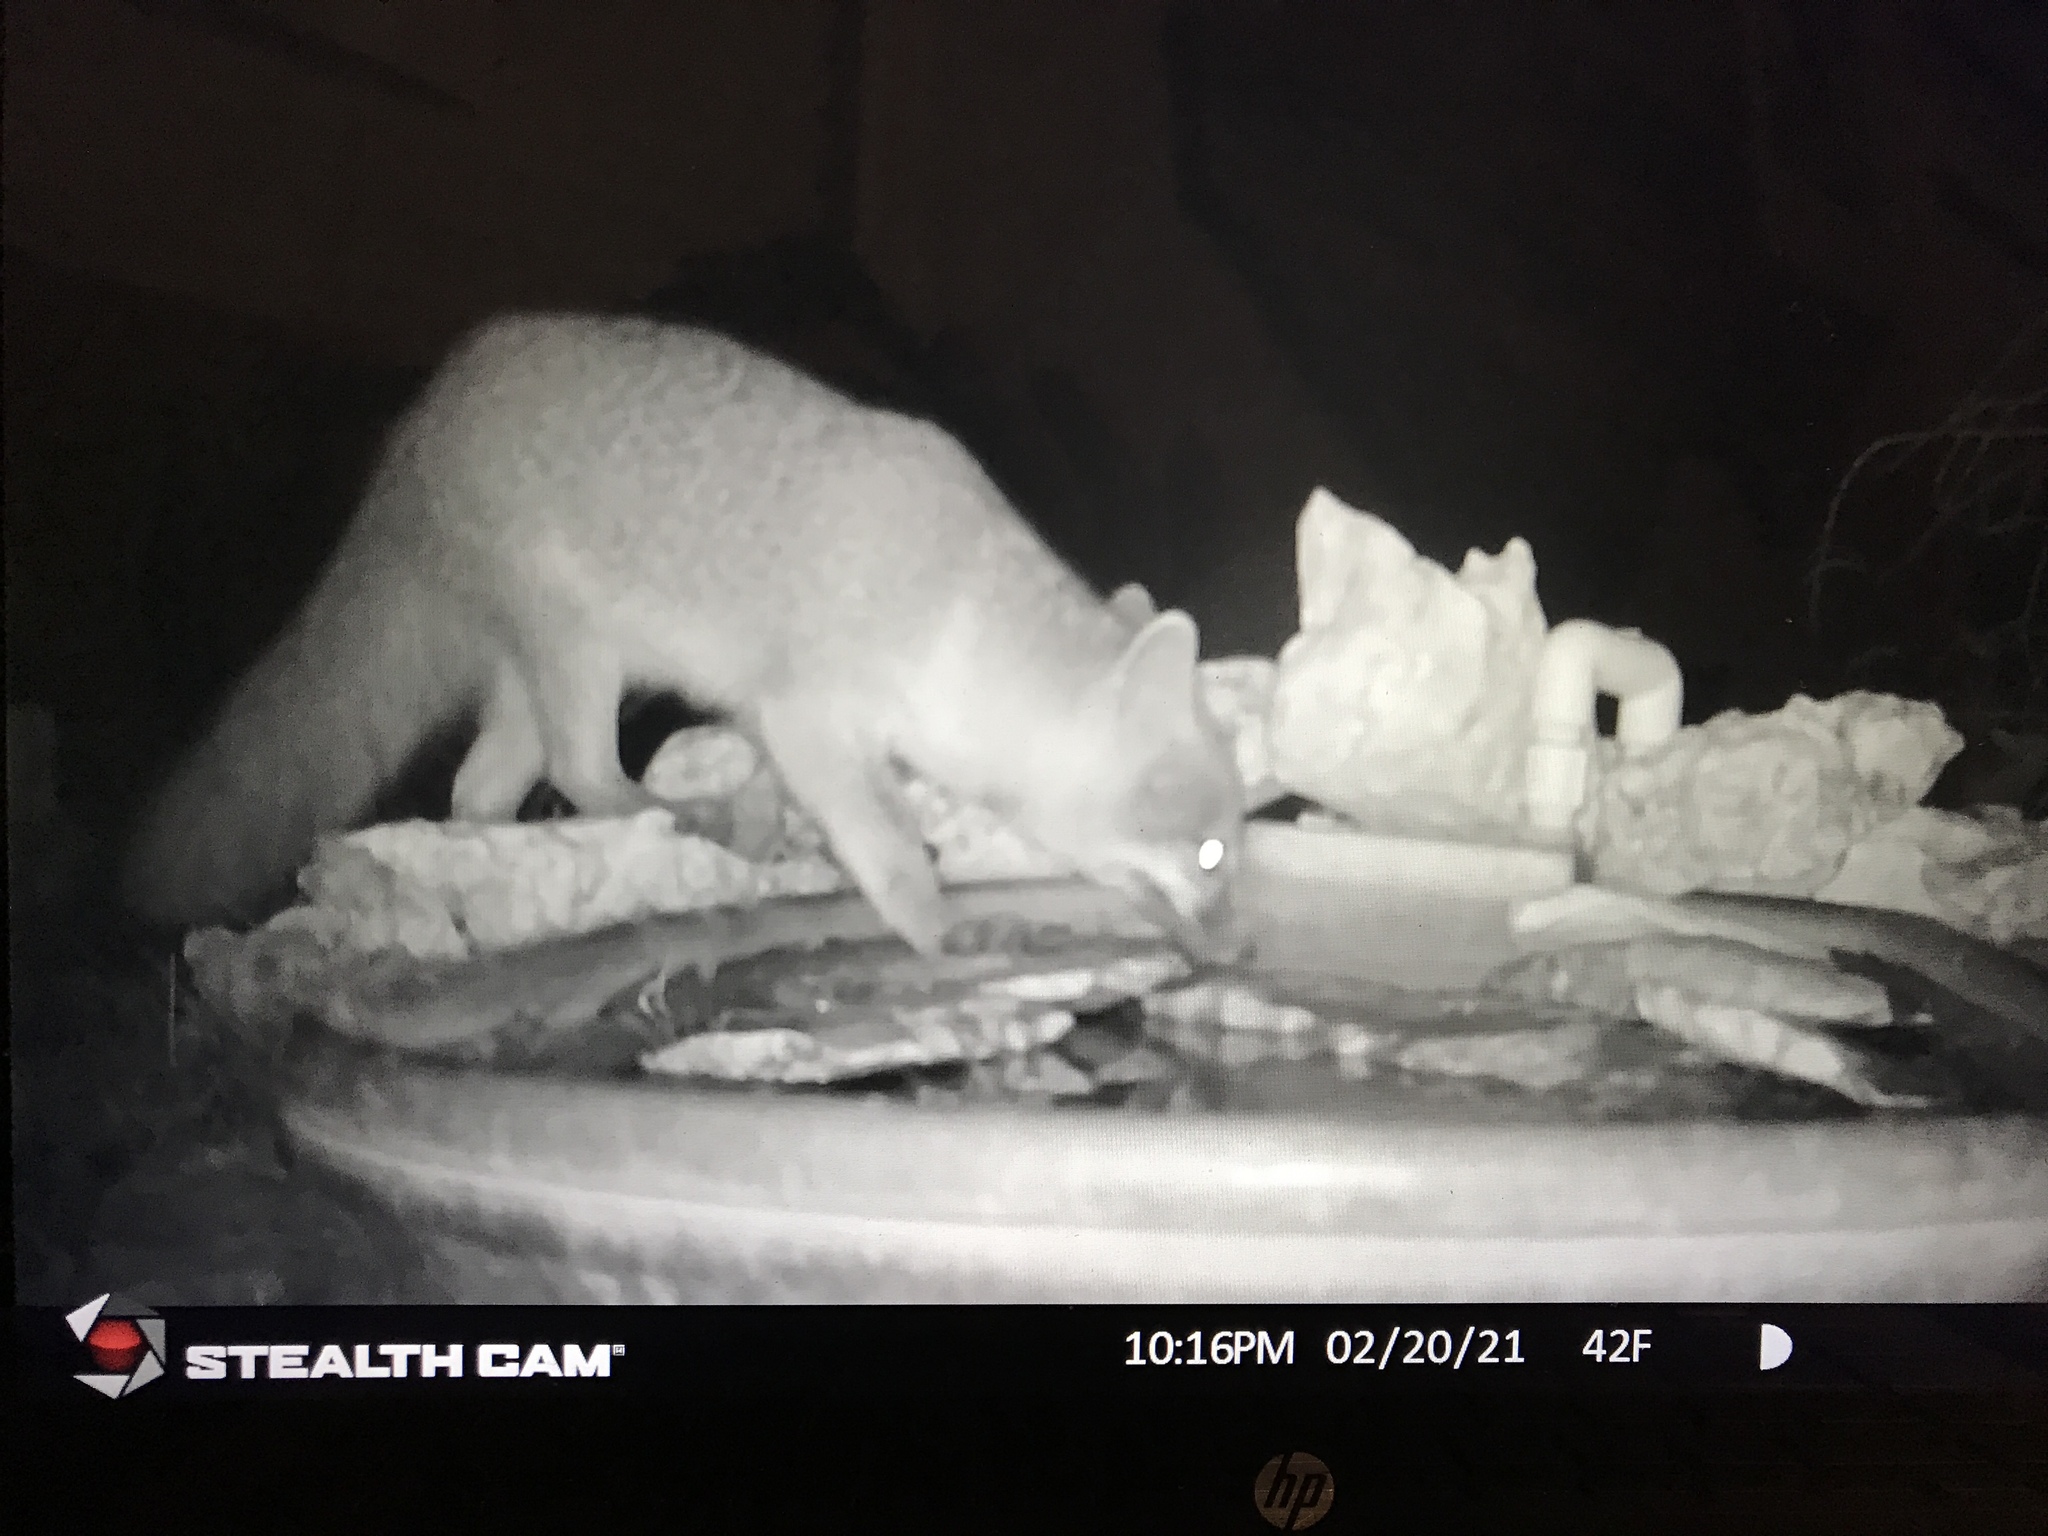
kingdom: Animalia
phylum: Chordata
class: Mammalia
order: Carnivora
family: Canidae
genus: Urocyon
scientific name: Urocyon cinereoargenteus
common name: Gray fox
